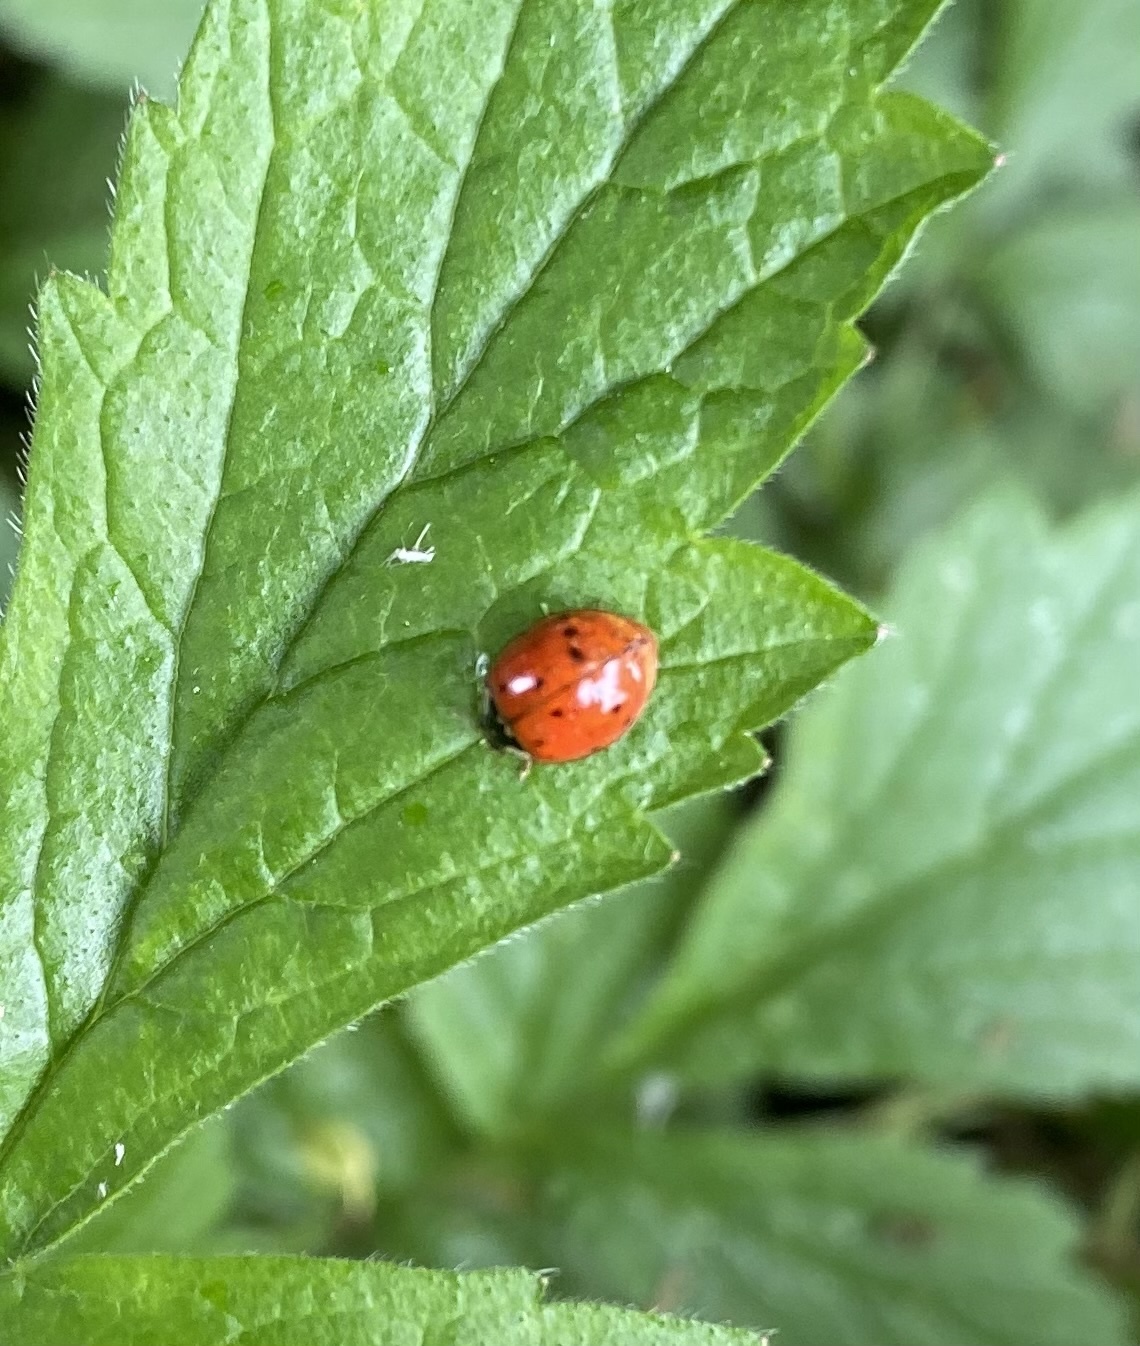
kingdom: Animalia
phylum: Arthropoda
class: Insecta
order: Coleoptera
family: Coccinellidae
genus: Harmonia
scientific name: Harmonia axyridis
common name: Harlequin ladybird
